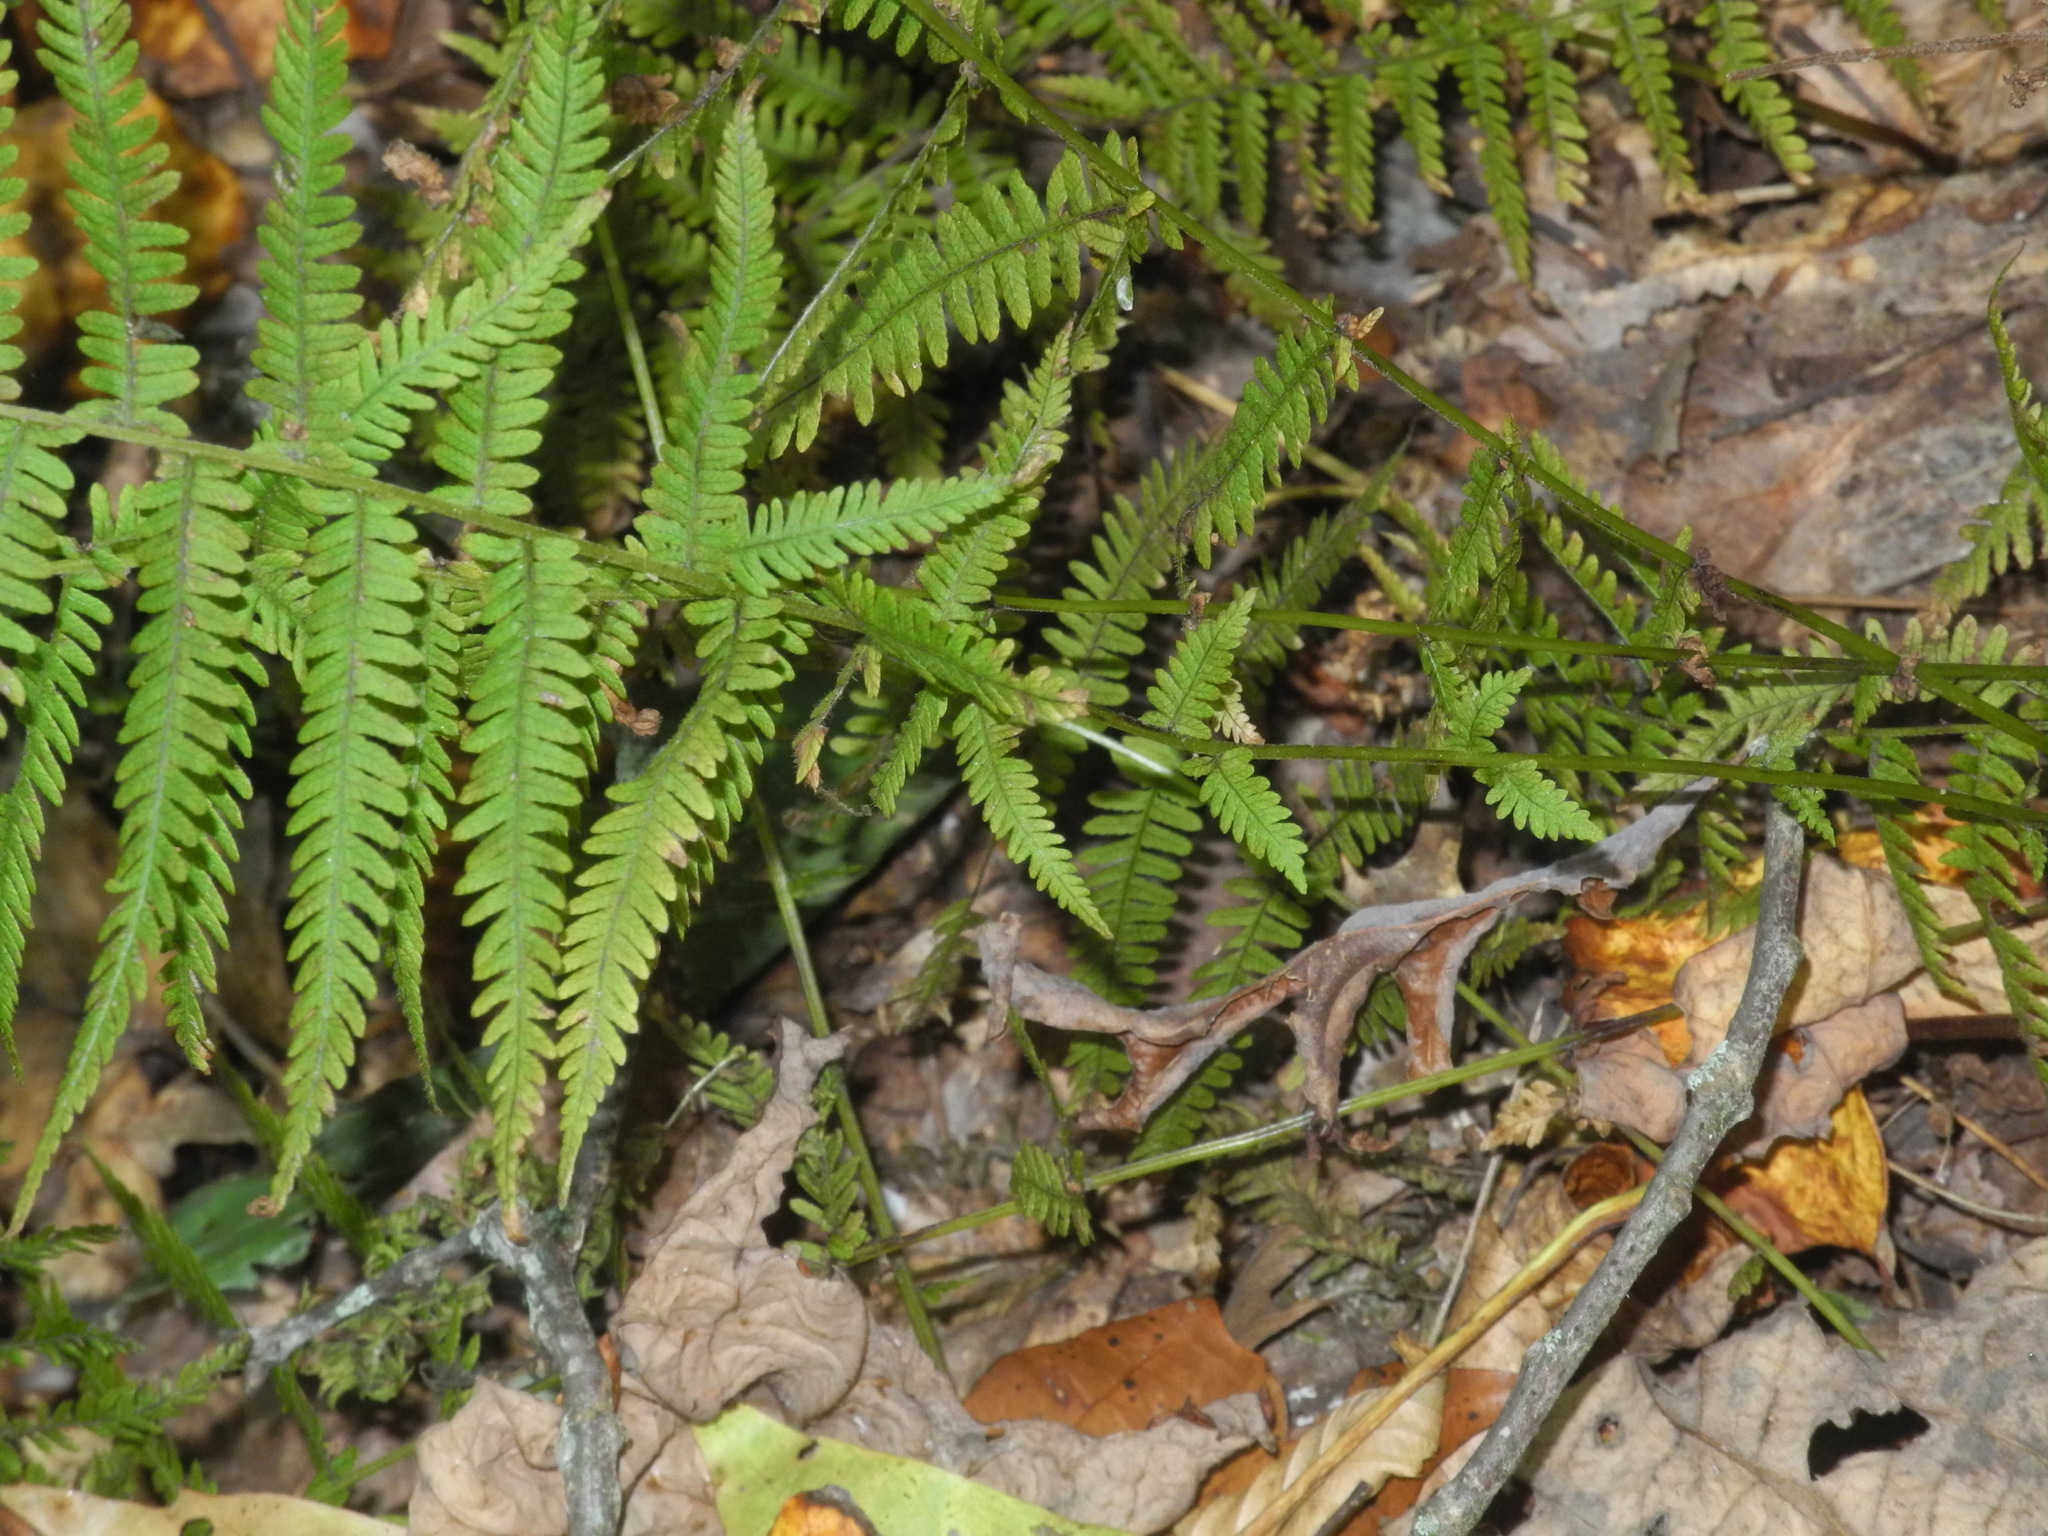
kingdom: Plantae
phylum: Tracheophyta
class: Polypodiopsida
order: Polypodiales
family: Thelypteridaceae
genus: Amauropelta
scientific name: Amauropelta noveboracensis
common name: New york fern
